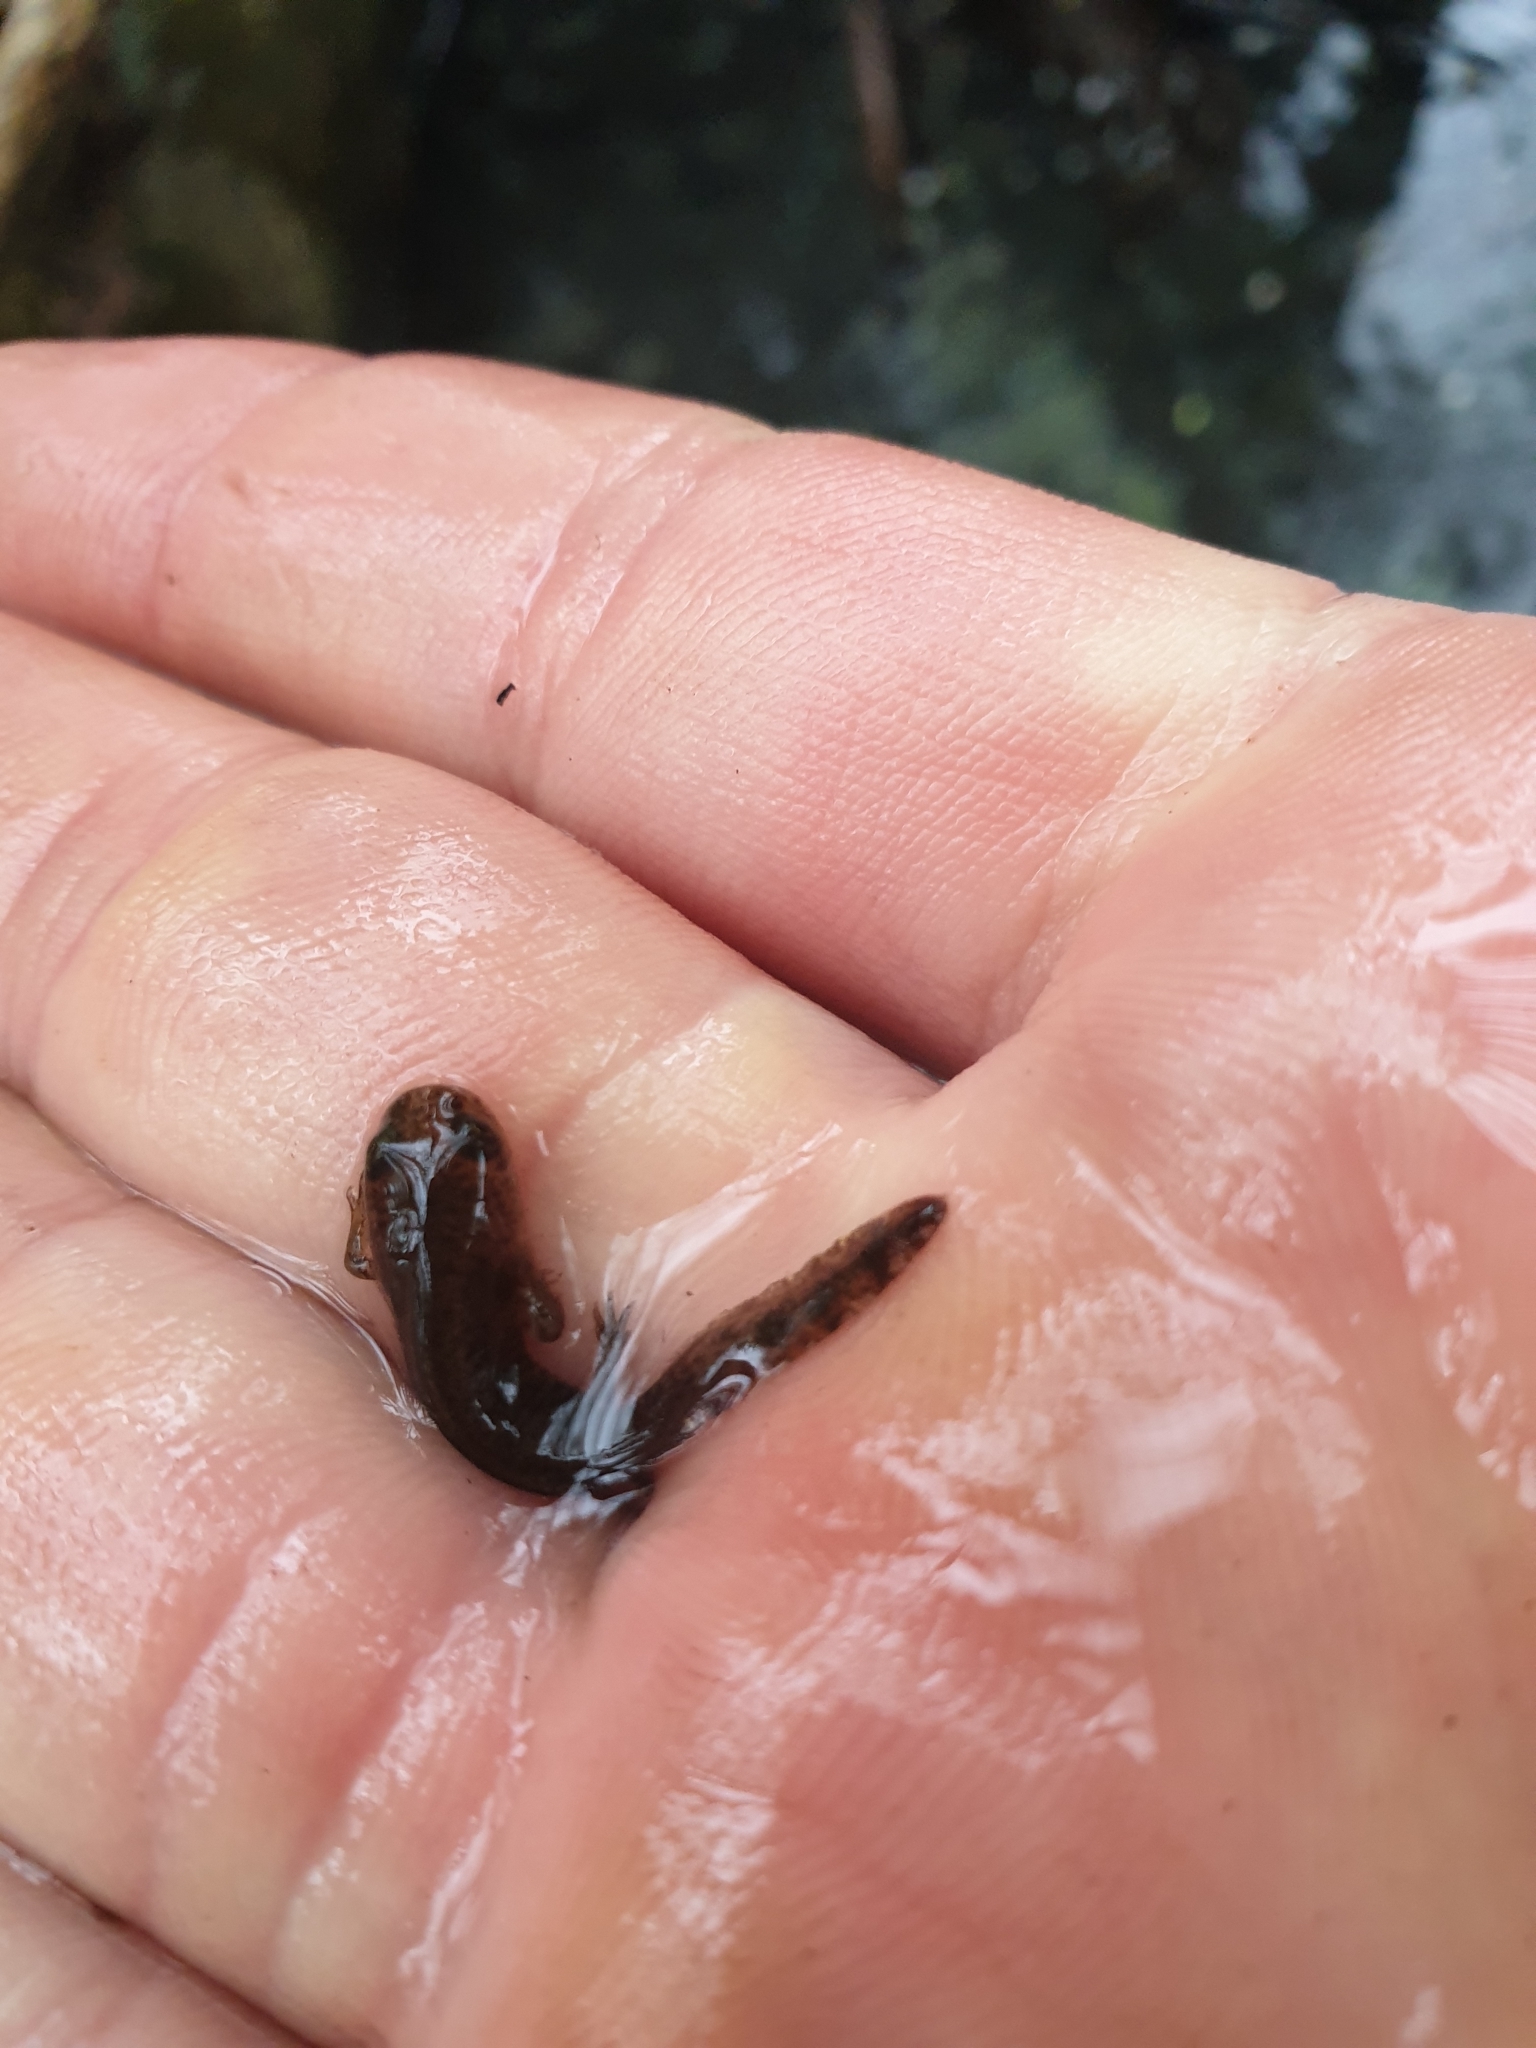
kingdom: Animalia
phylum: Chordata
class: Amphibia
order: Caudata
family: Salamandridae
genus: Salamandra
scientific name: Salamandra salamandra
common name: Fire salamander
